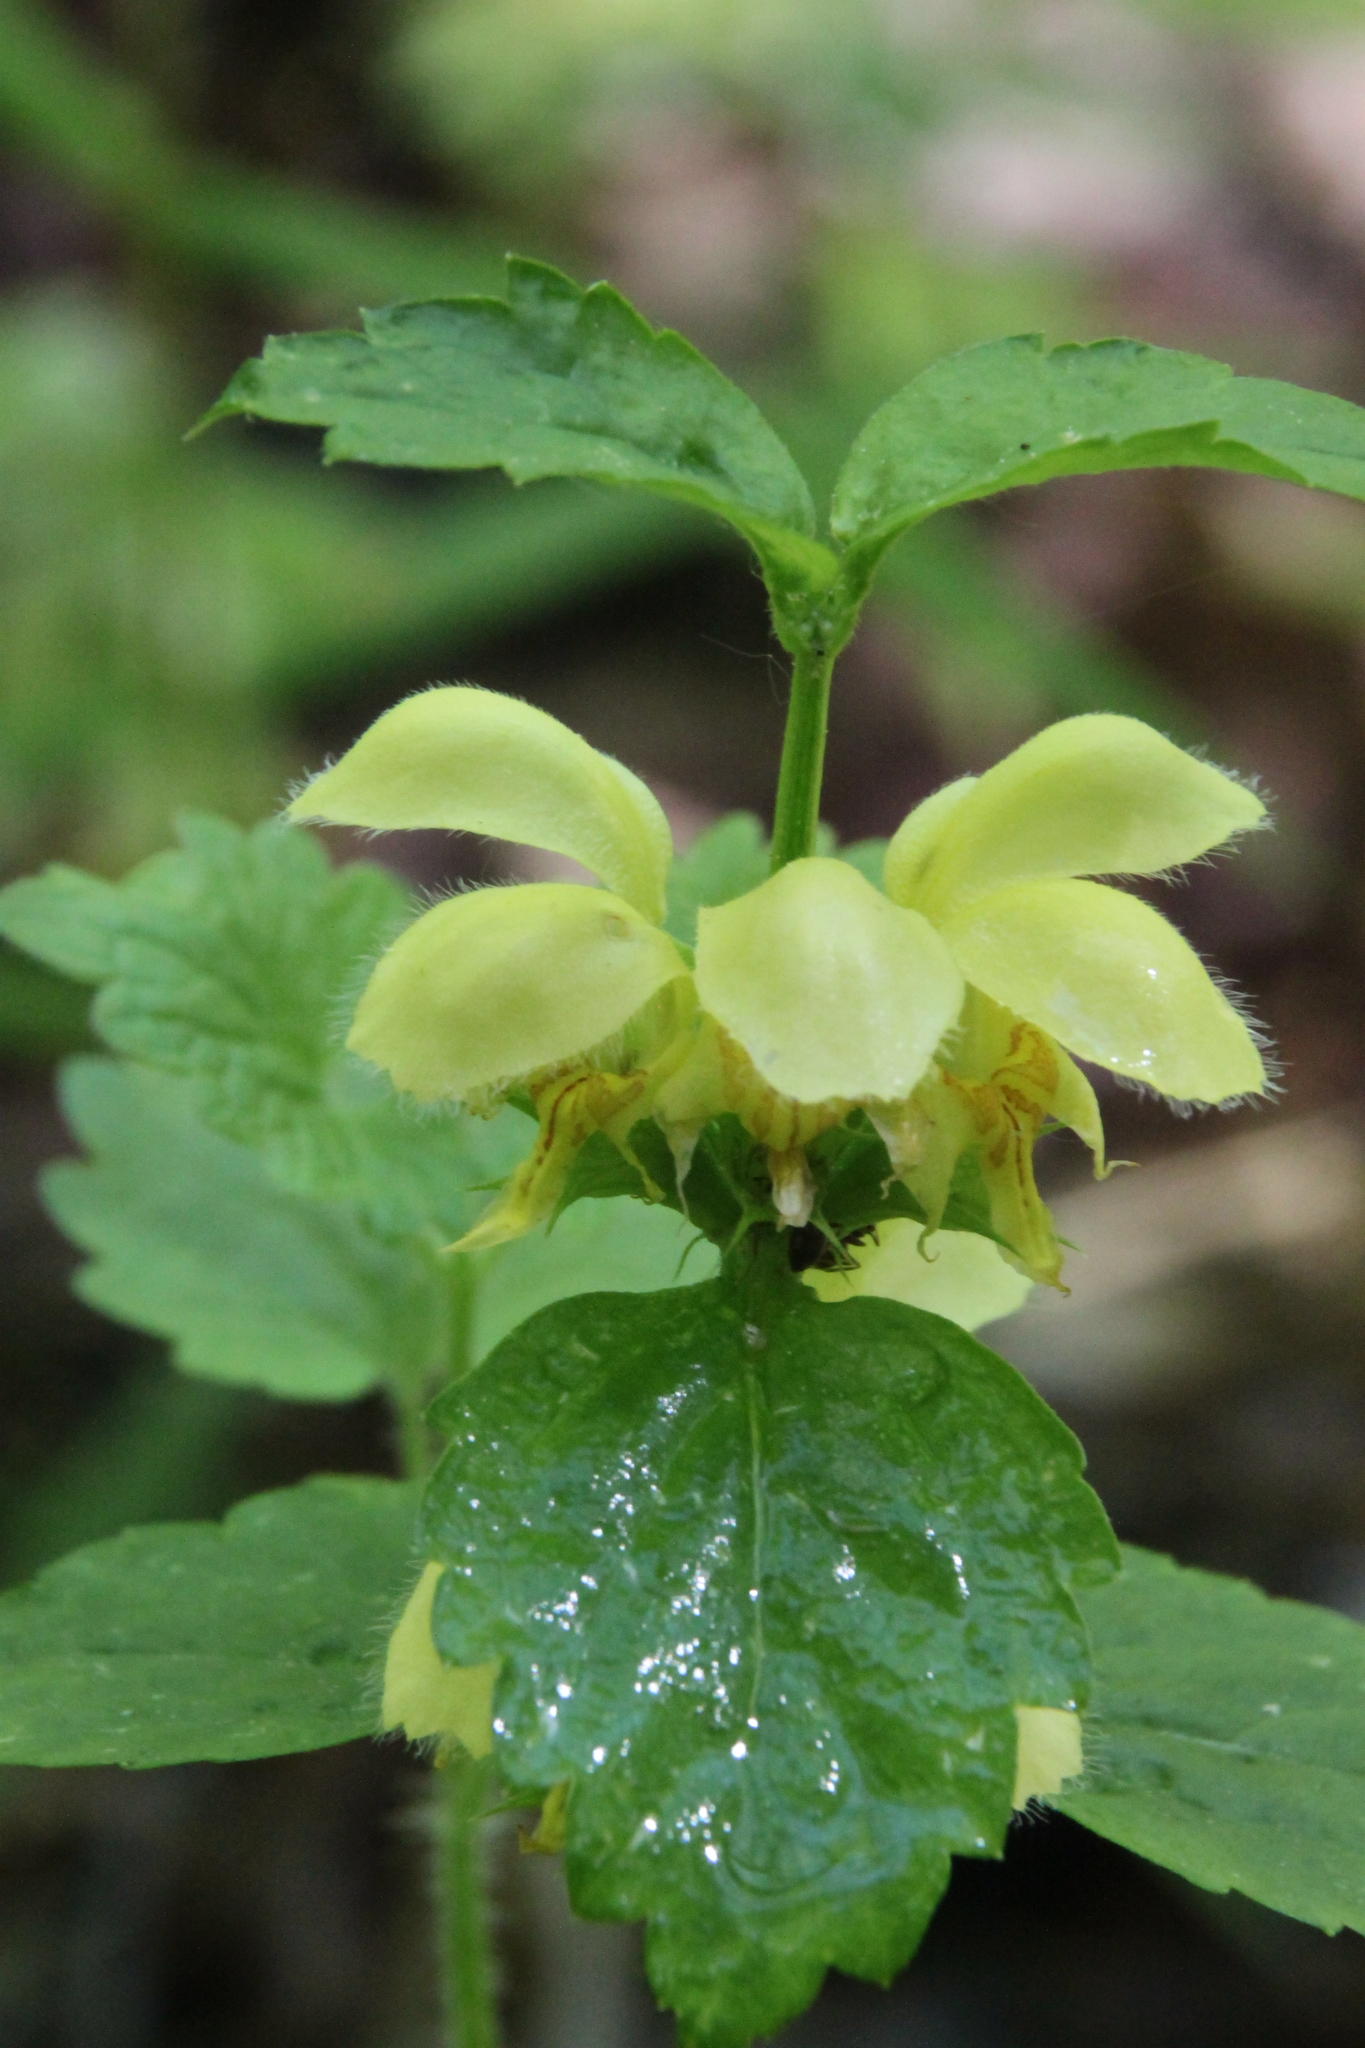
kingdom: Plantae
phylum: Tracheophyta
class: Magnoliopsida
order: Lamiales
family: Lamiaceae
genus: Lamium
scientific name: Lamium galeobdolon
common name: Yellow archangel
